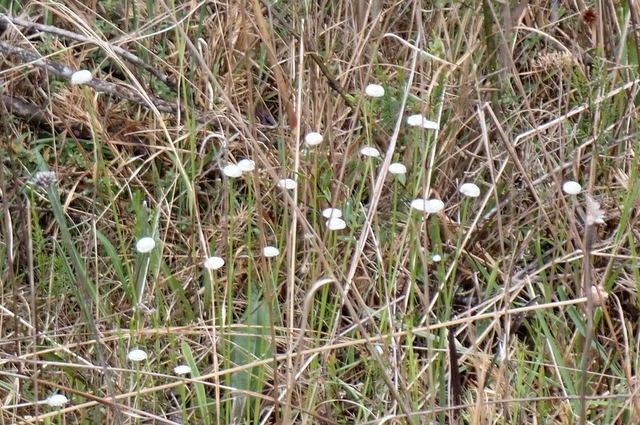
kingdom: Plantae
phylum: Tracheophyta
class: Liliopsida
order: Poales
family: Eriocaulaceae
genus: Eriocaulon
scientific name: Eriocaulon compressum
